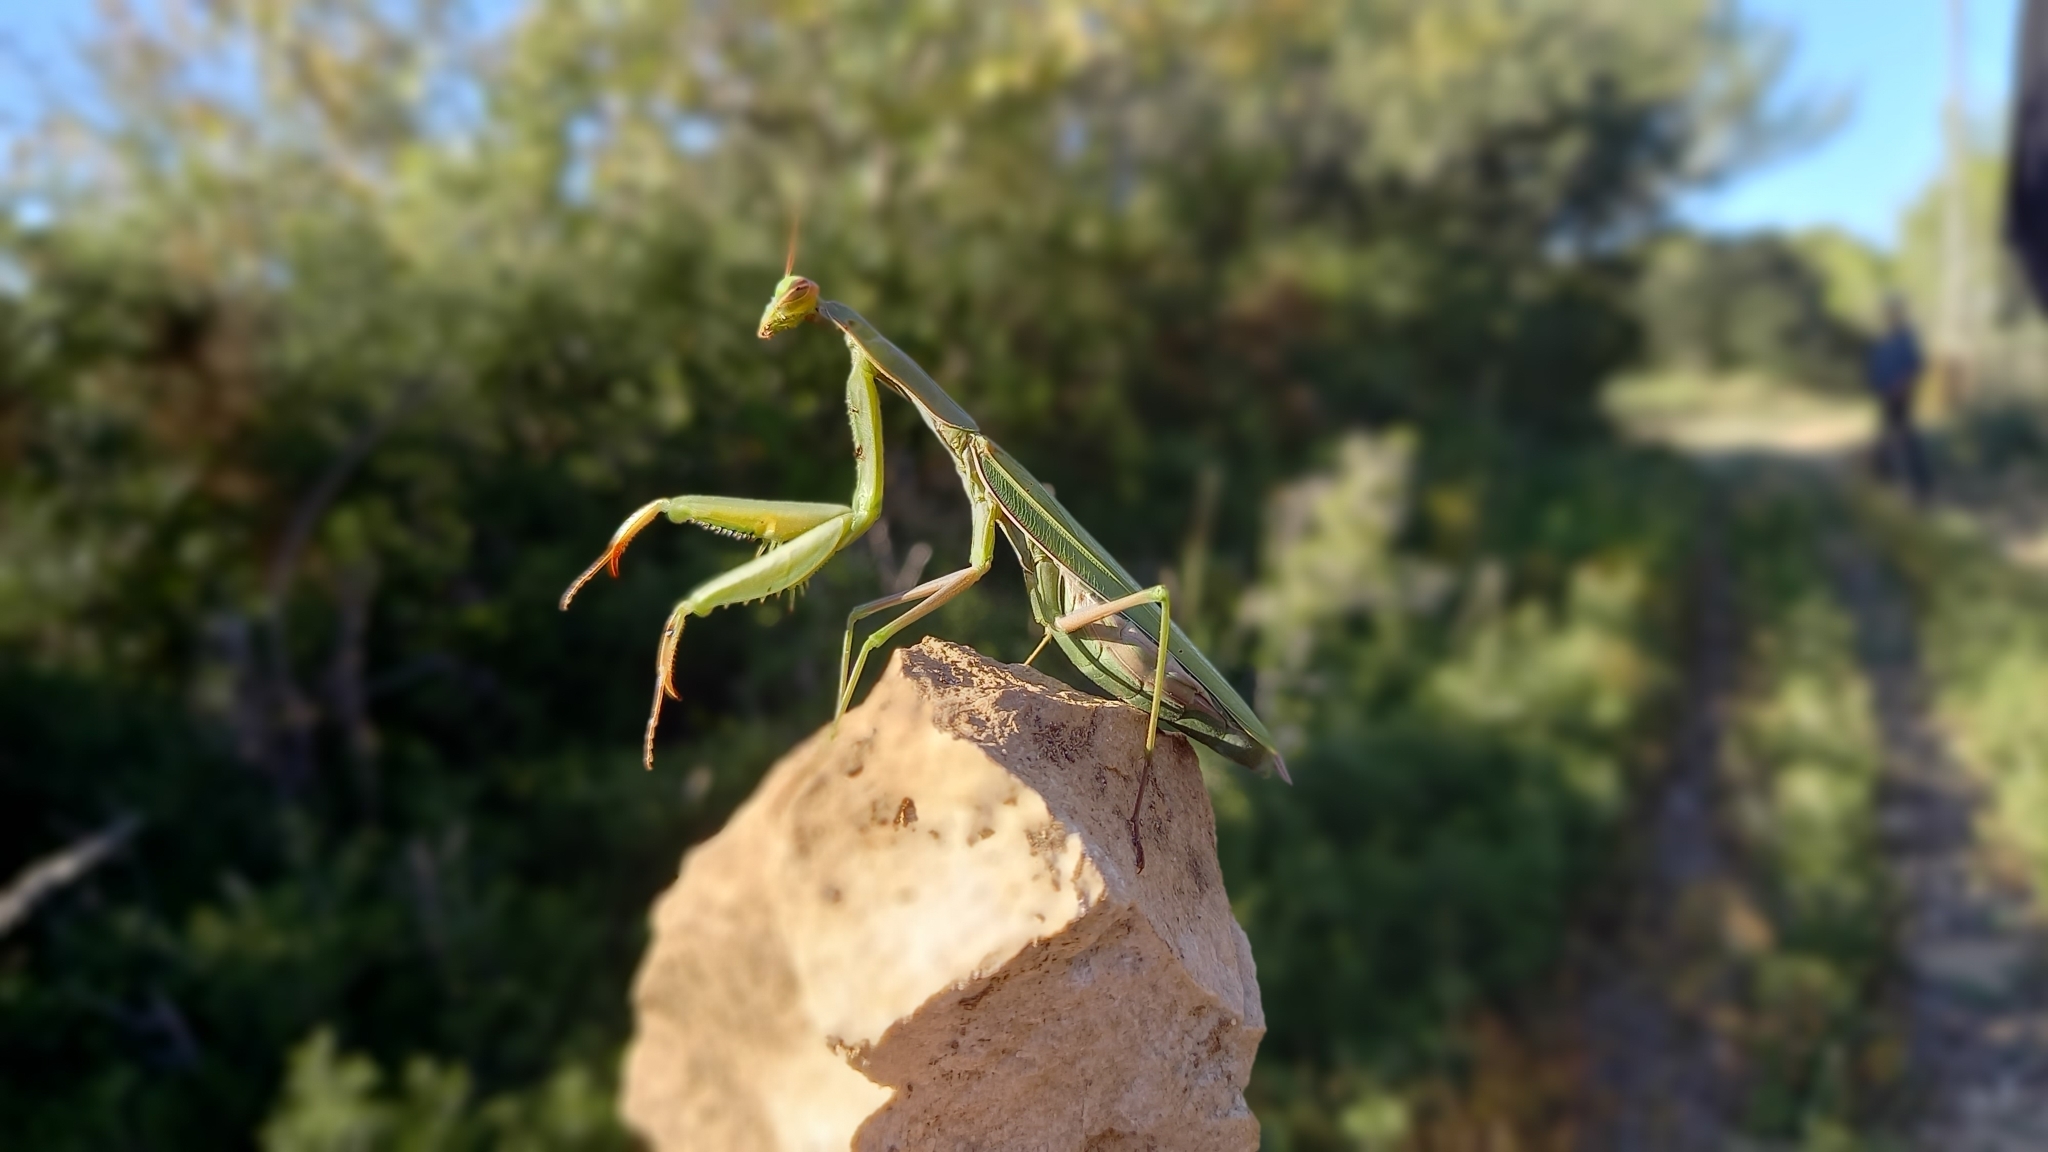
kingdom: Animalia
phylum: Arthropoda
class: Insecta
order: Mantodea
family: Mantidae
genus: Mantis
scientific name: Mantis religiosa
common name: Praying mantis
